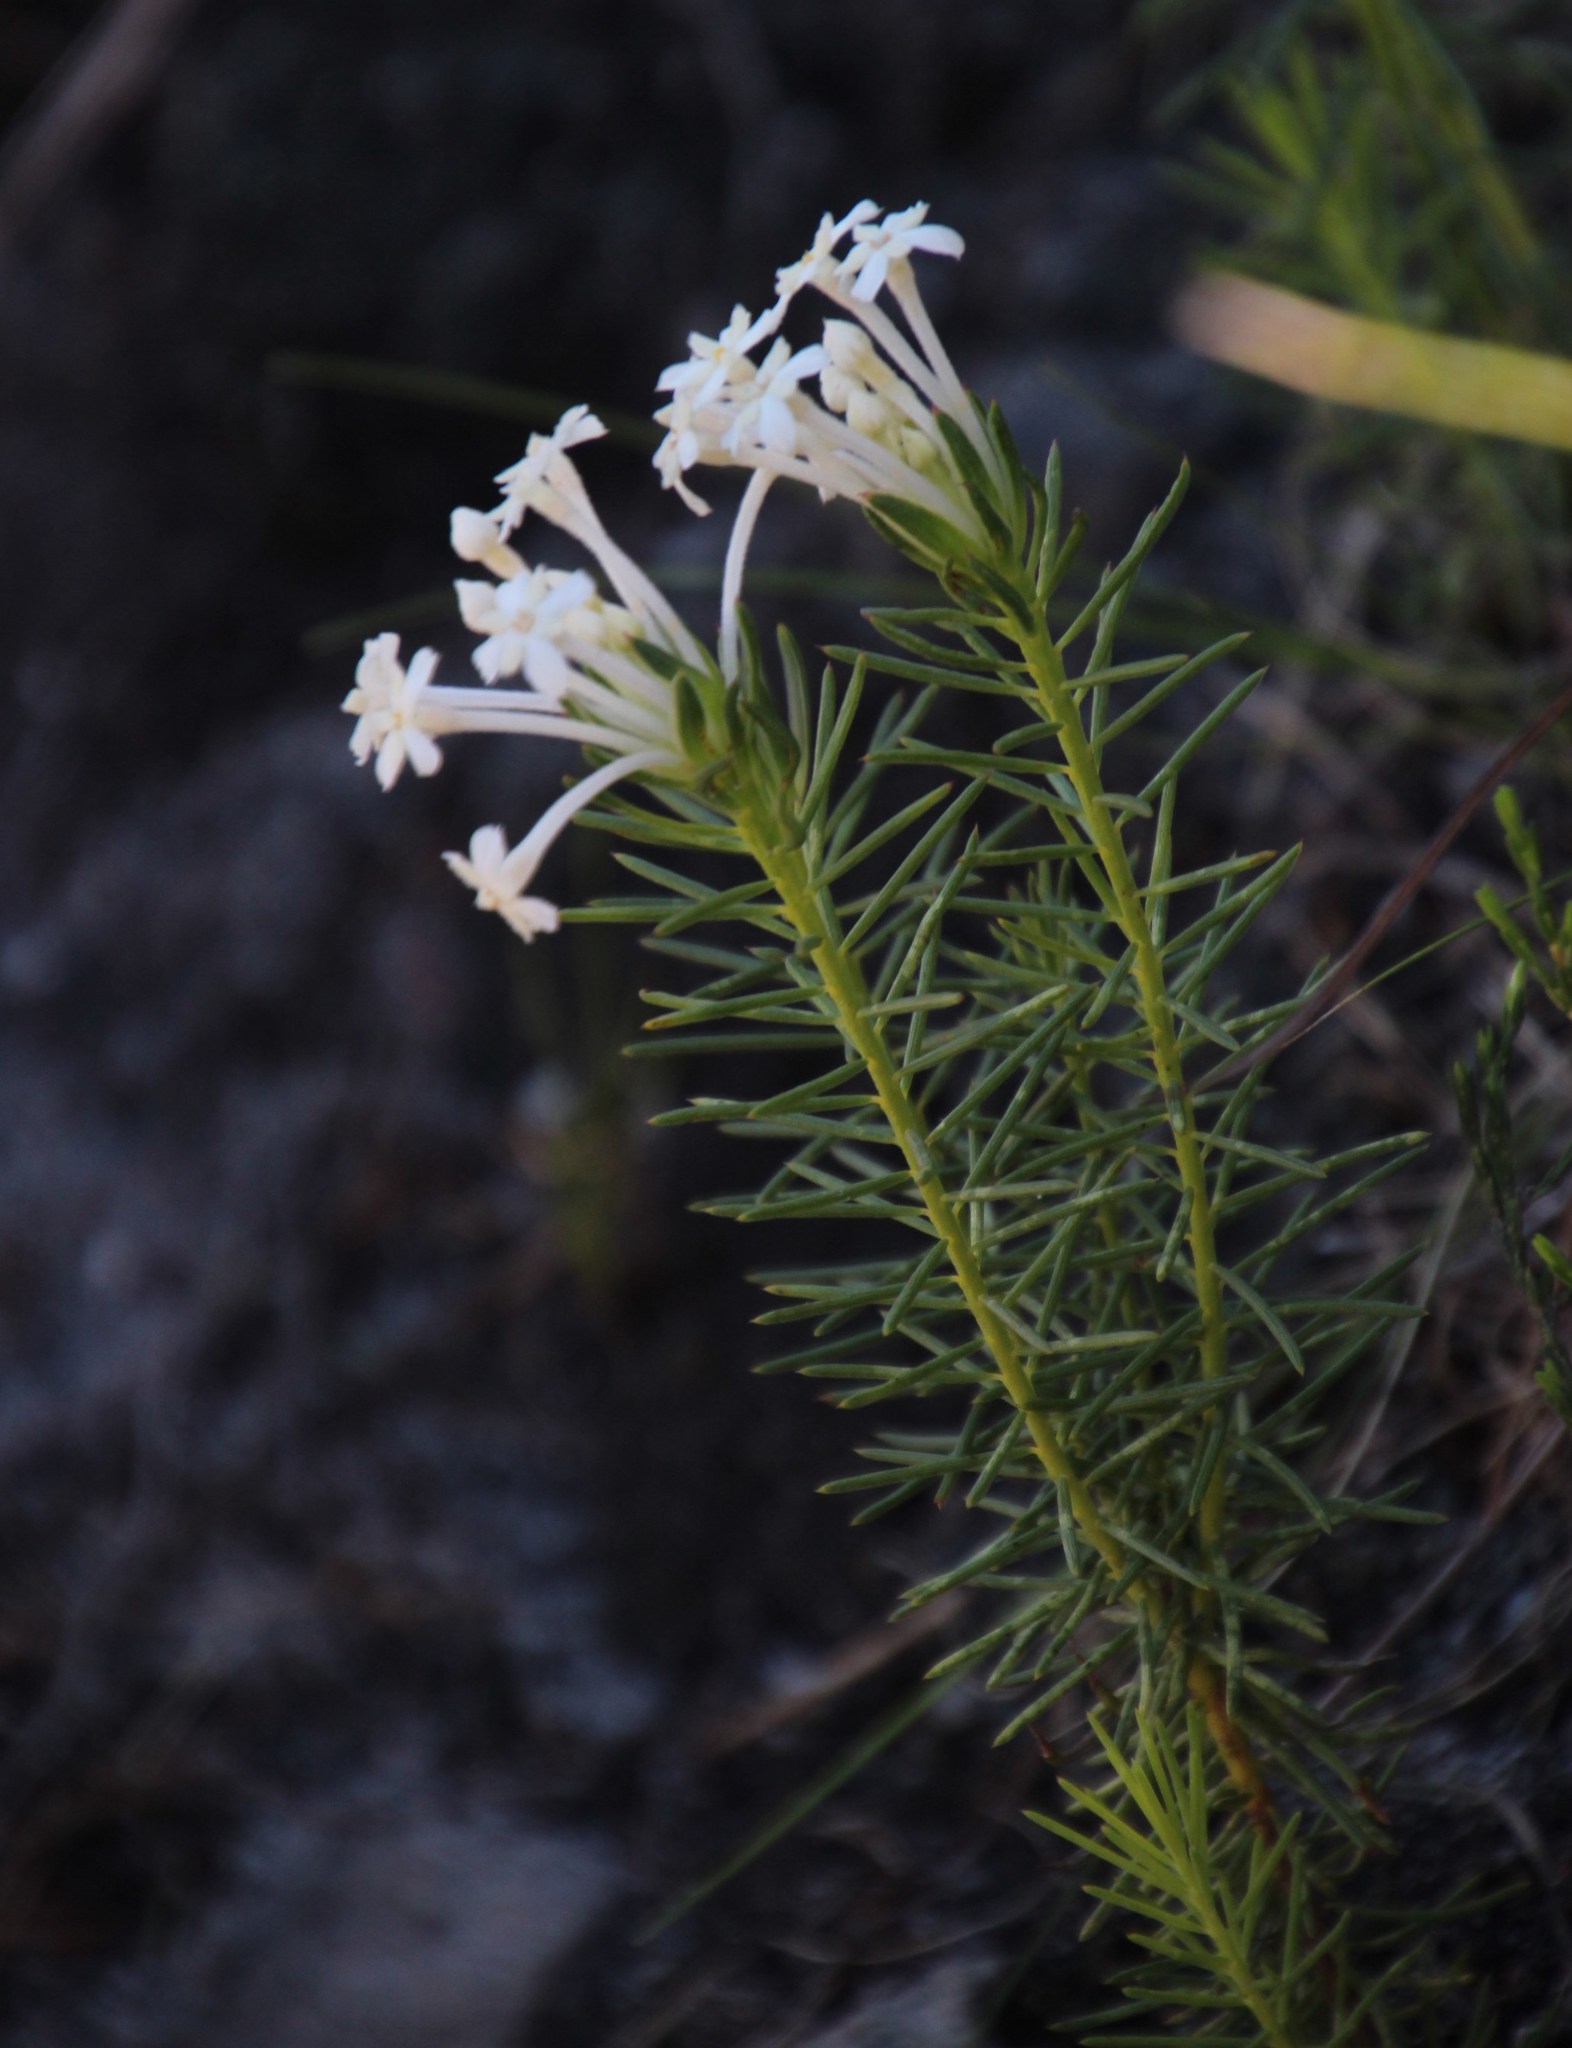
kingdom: Plantae
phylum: Tracheophyta
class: Magnoliopsida
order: Malvales
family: Thymelaeaceae
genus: Gnidia
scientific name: Gnidia pinifolia
